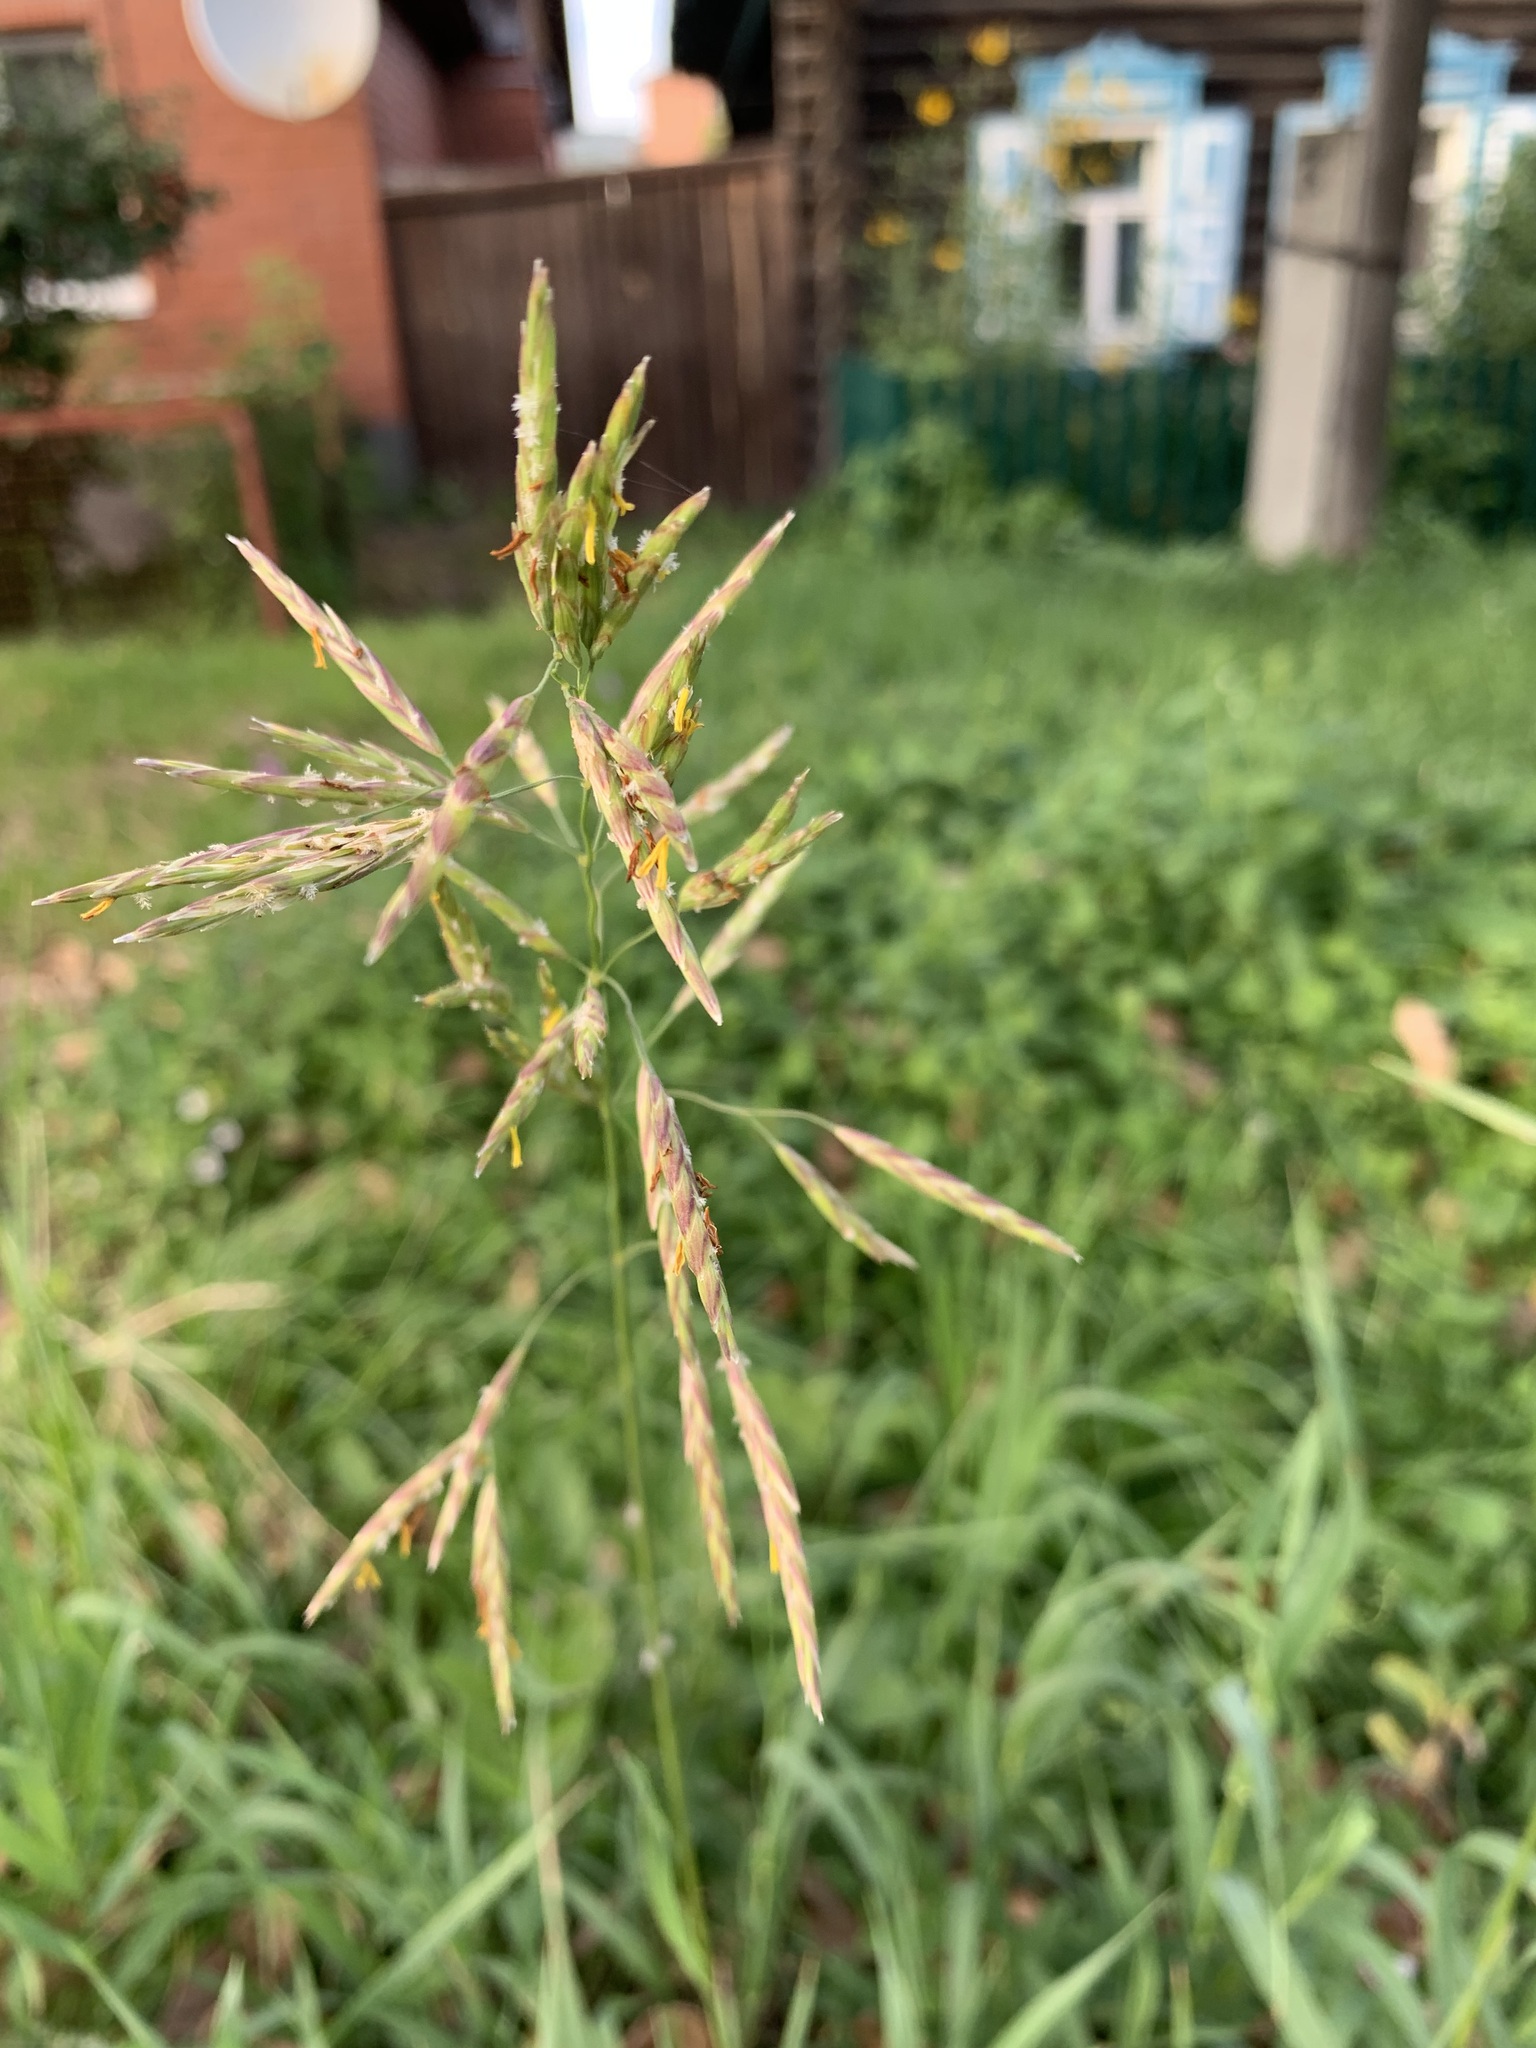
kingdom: Plantae
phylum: Tracheophyta
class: Liliopsida
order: Poales
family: Poaceae
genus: Bromus
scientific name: Bromus inermis
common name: Smooth brome
